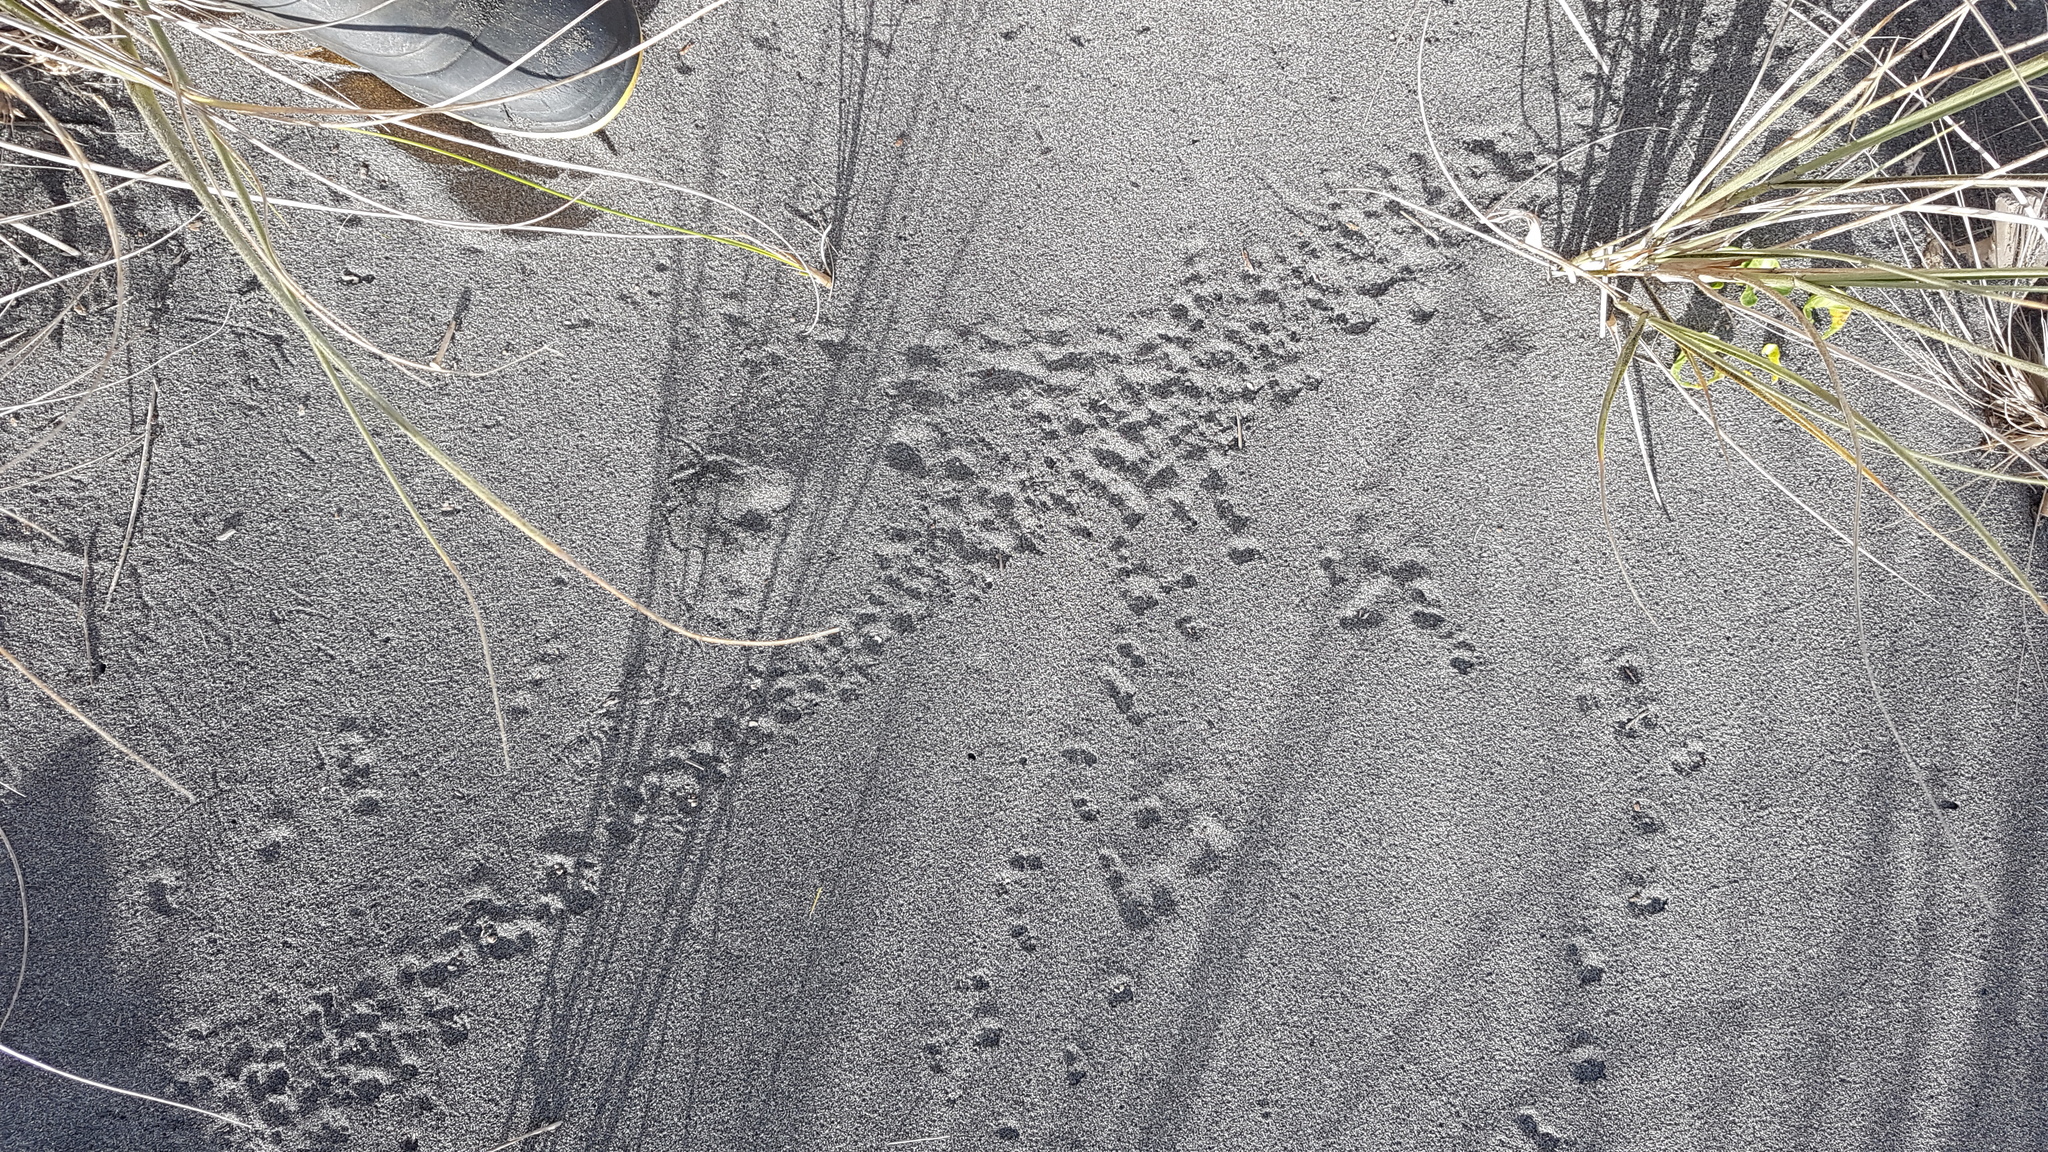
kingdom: Animalia
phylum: Chordata
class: Mammalia
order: Rodentia
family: Muridae
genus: Rattus
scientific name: Rattus rattus
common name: Black rat
